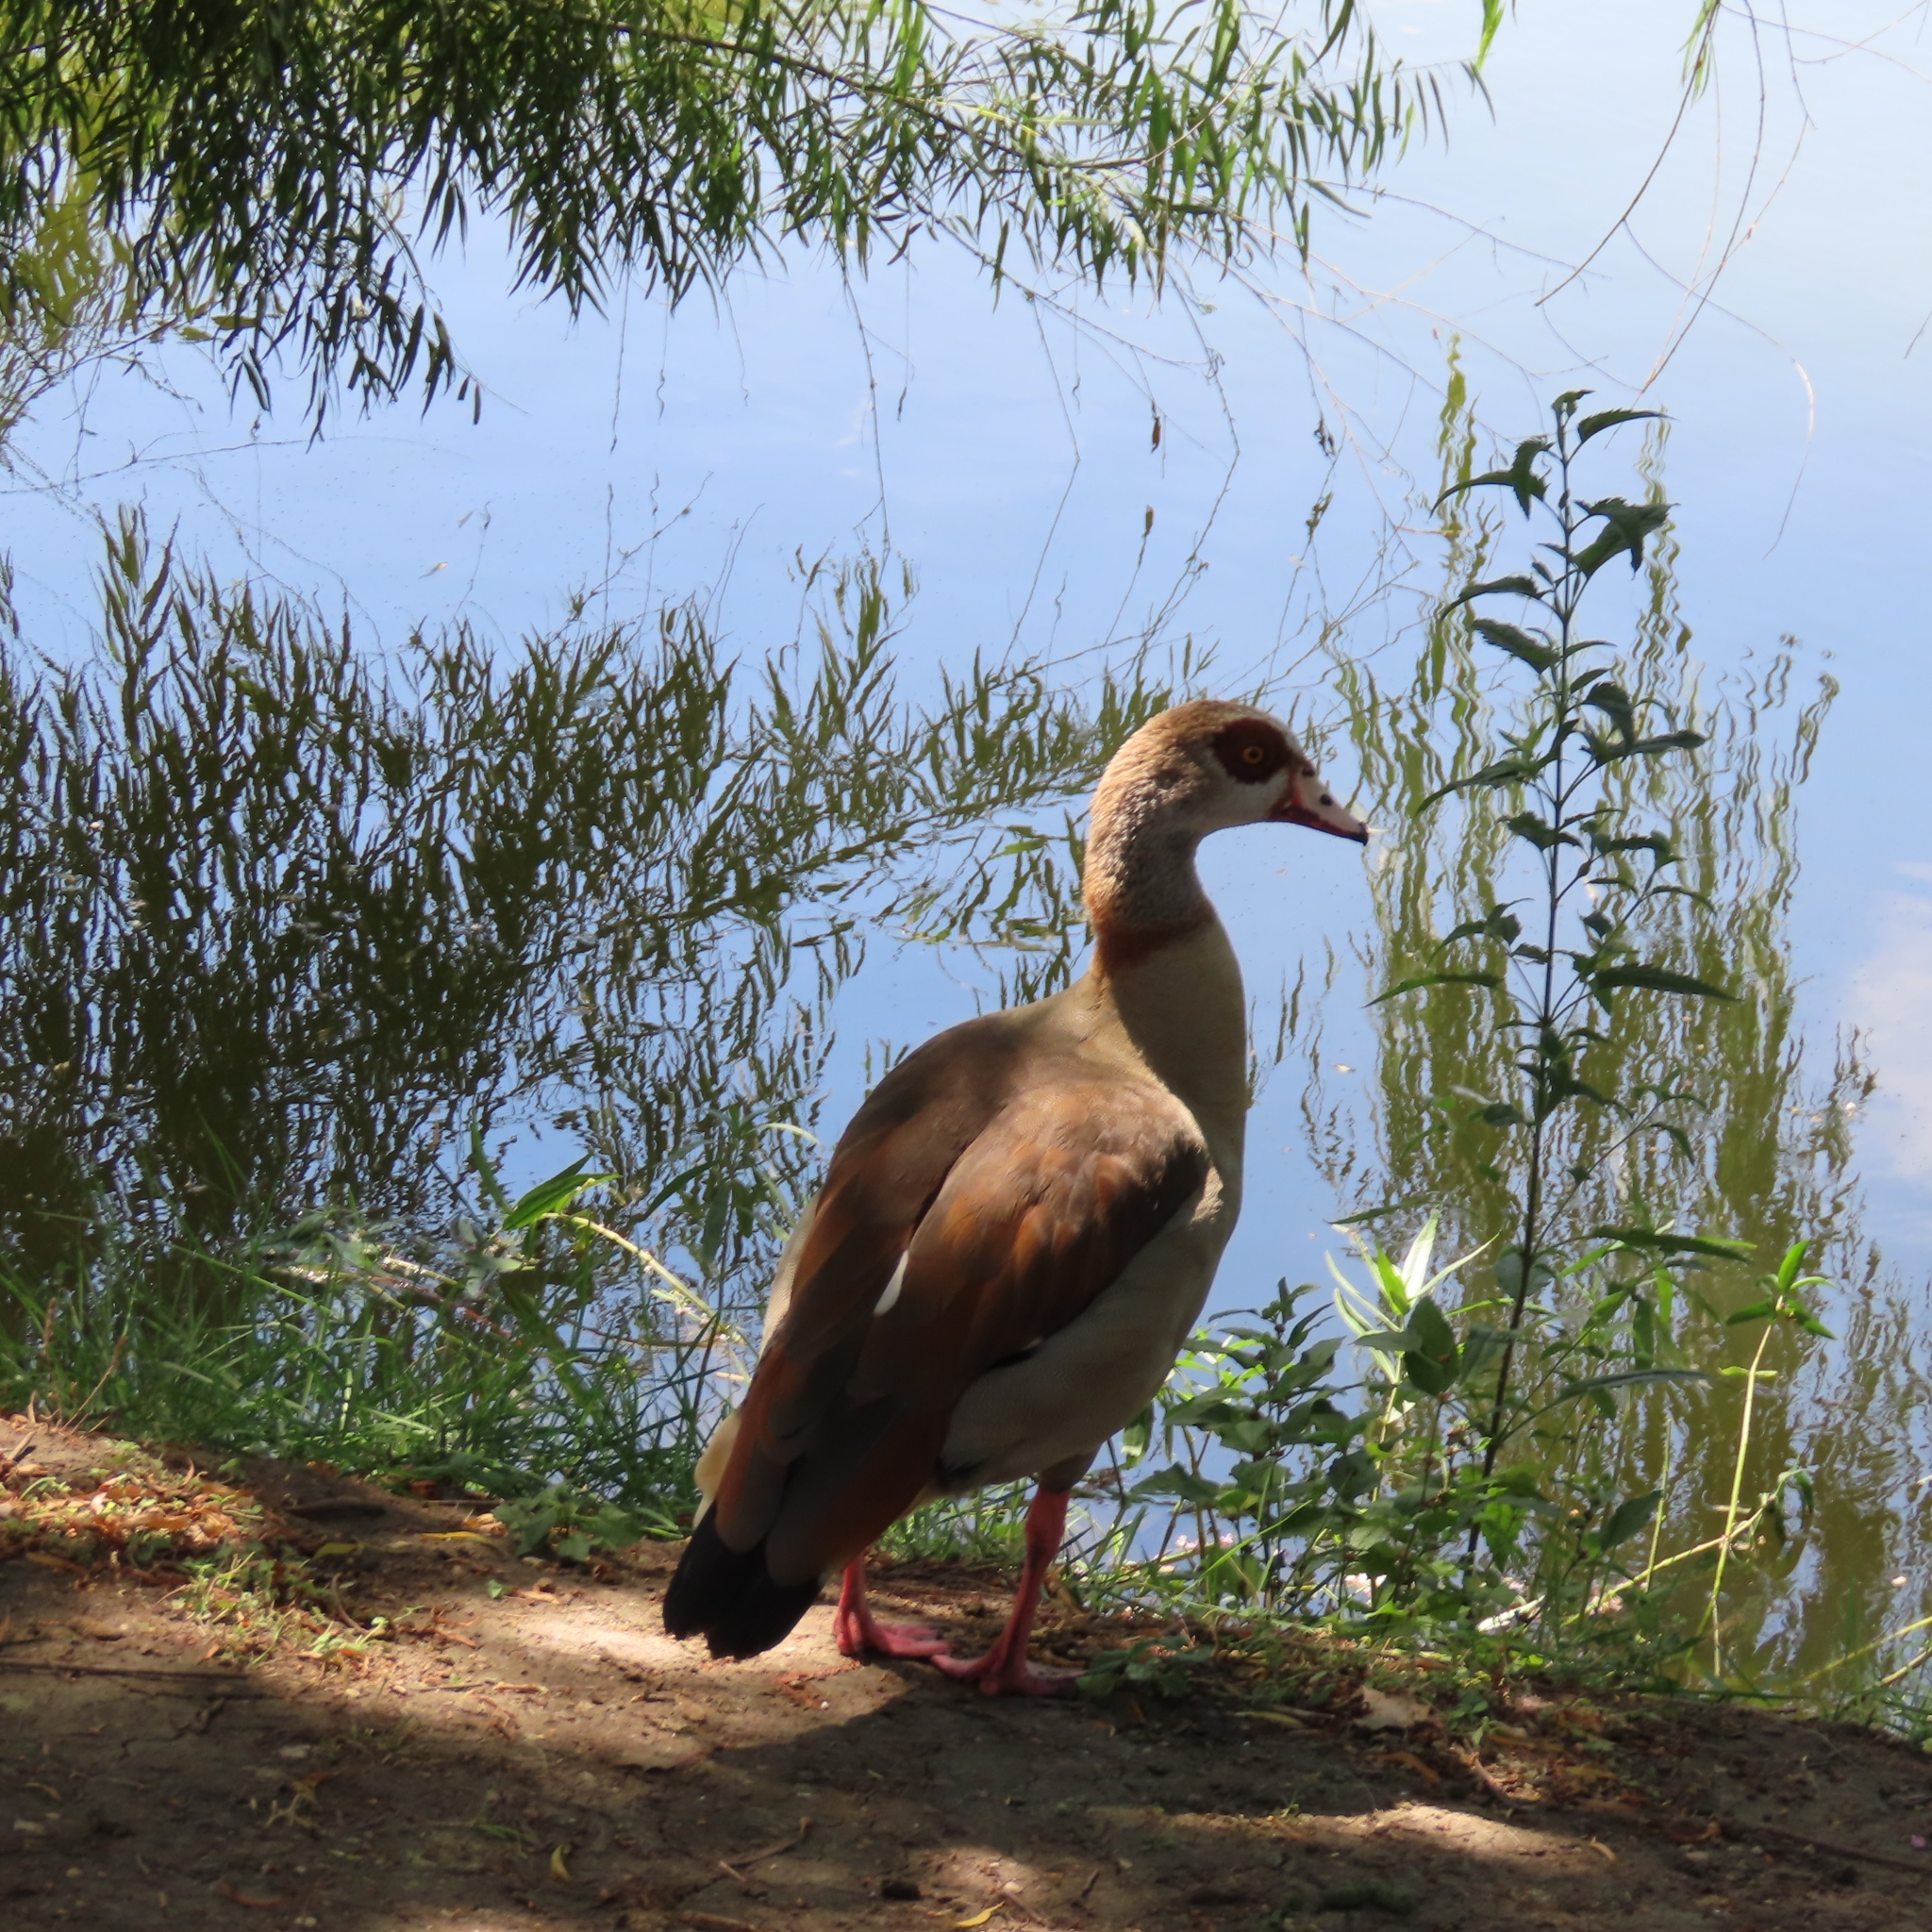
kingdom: Animalia
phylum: Chordata
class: Aves
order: Anseriformes
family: Anatidae
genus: Alopochen
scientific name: Alopochen aegyptiaca
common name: Egyptian goose
